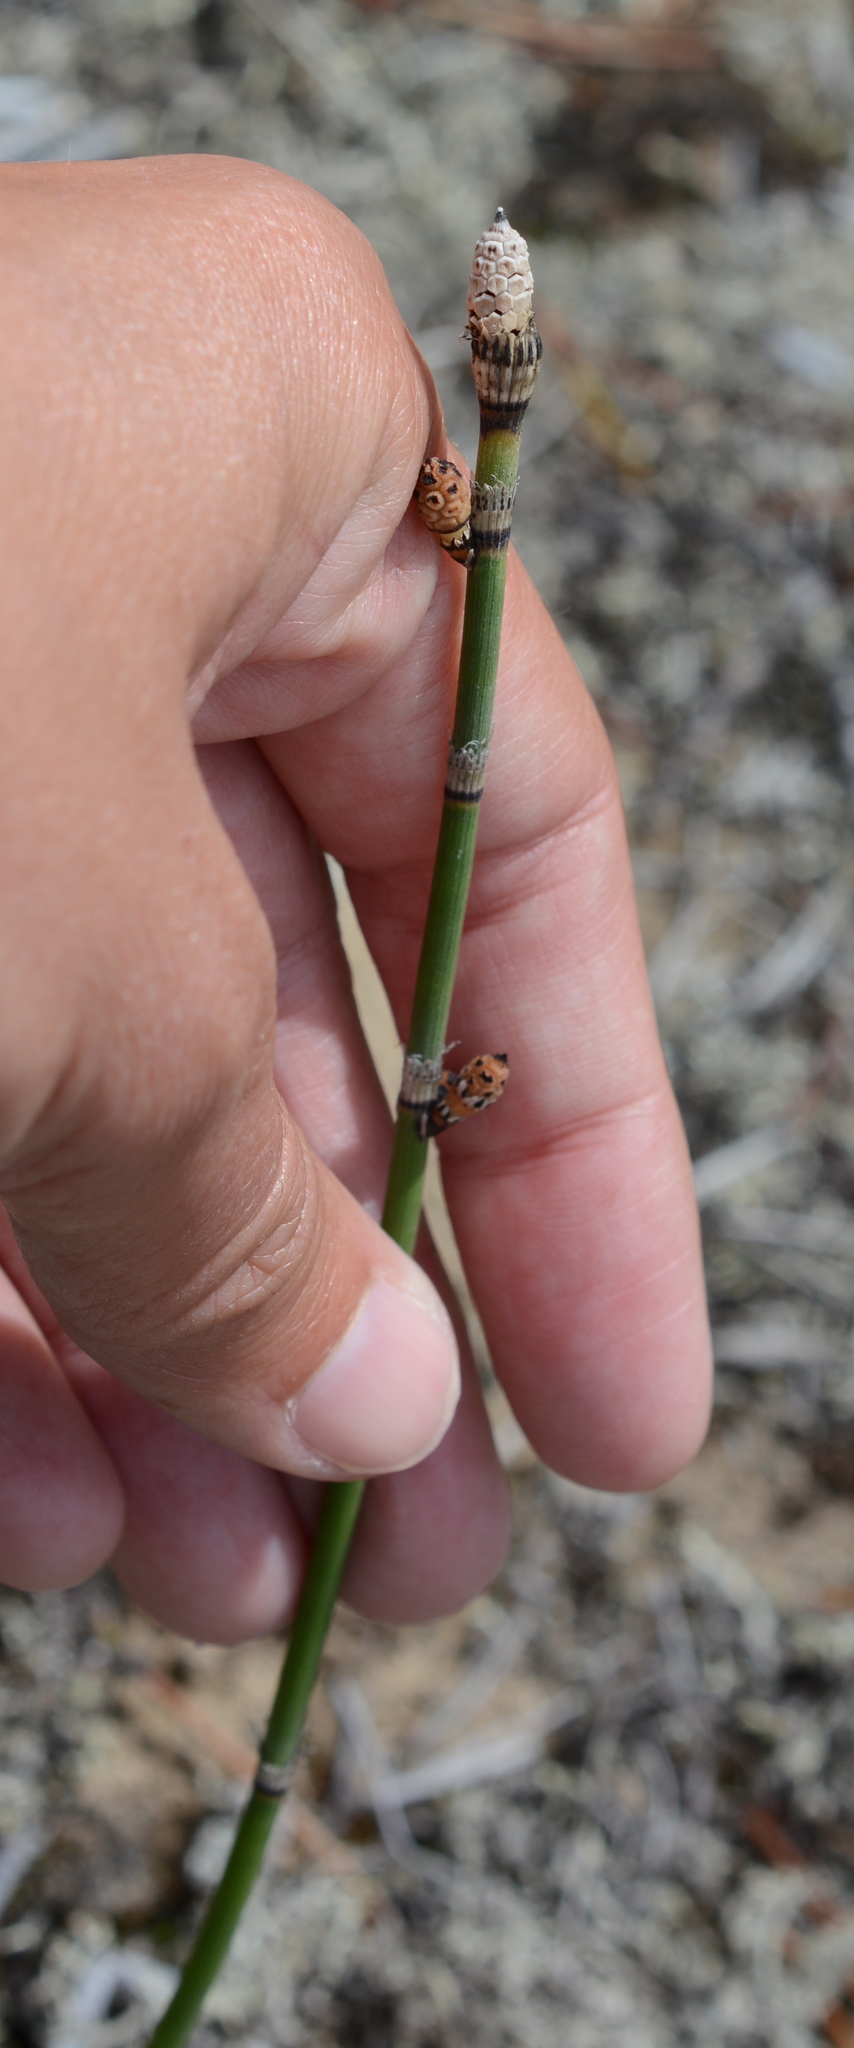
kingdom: Plantae
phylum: Tracheophyta
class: Polypodiopsida
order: Equisetales
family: Equisetaceae
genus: Equisetum
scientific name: Equisetum trachyodon
